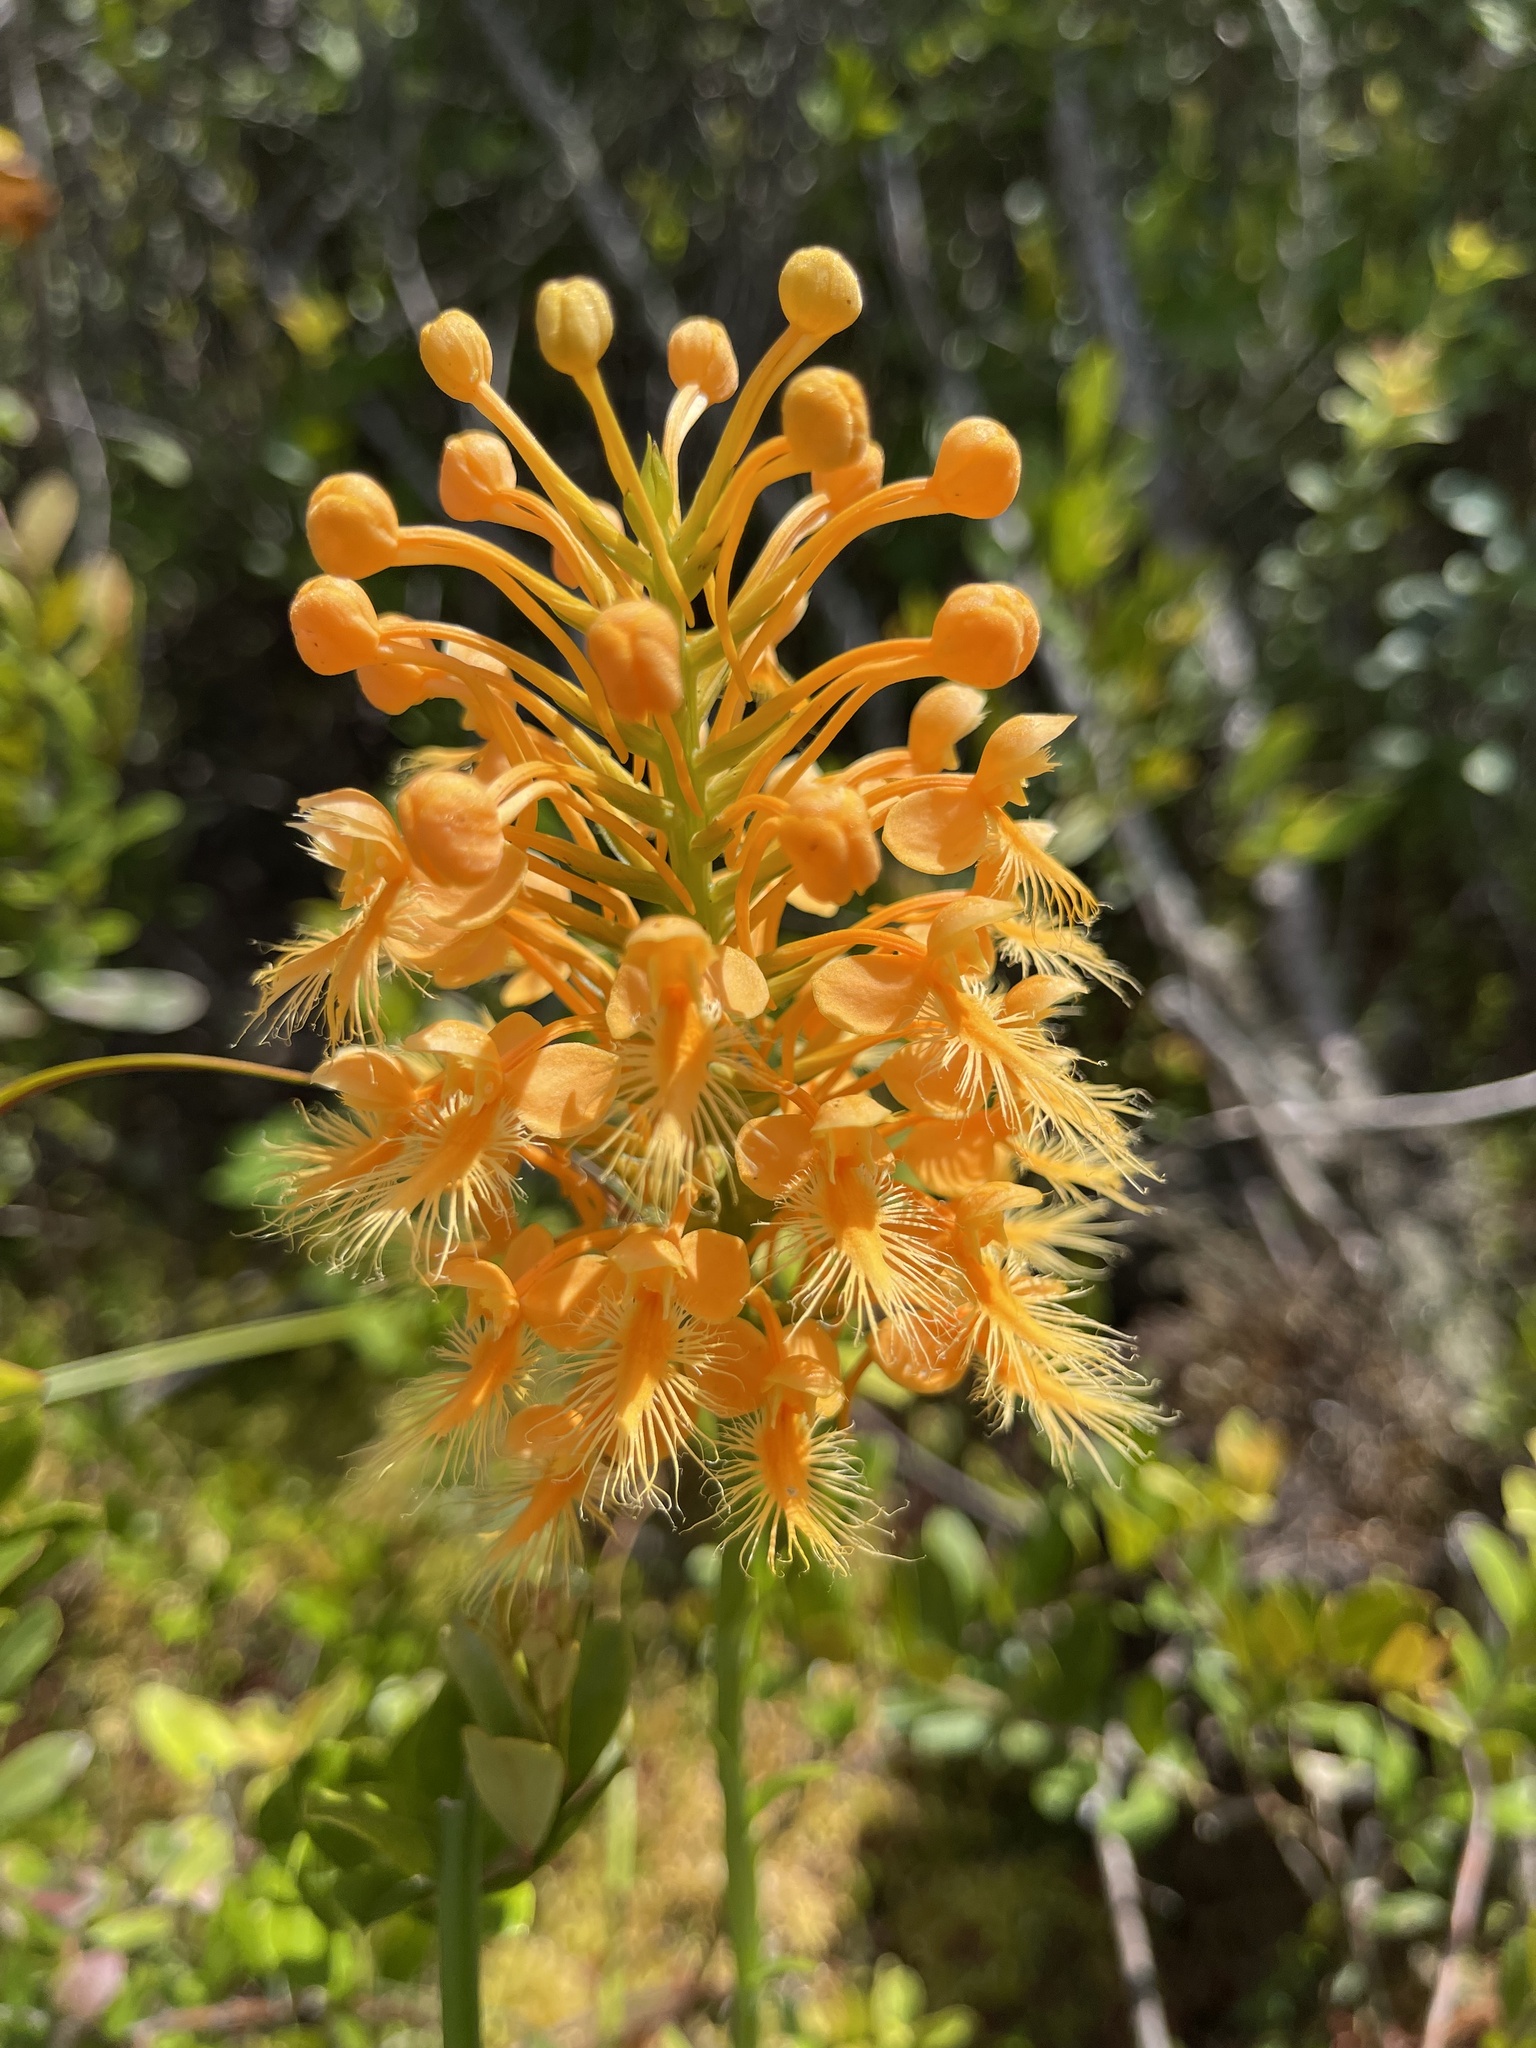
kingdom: Plantae
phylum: Tracheophyta
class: Liliopsida
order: Asparagales
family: Orchidaceae
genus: Platanthera
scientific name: Platanthera ciliaris
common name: Yellow fringed orchid
